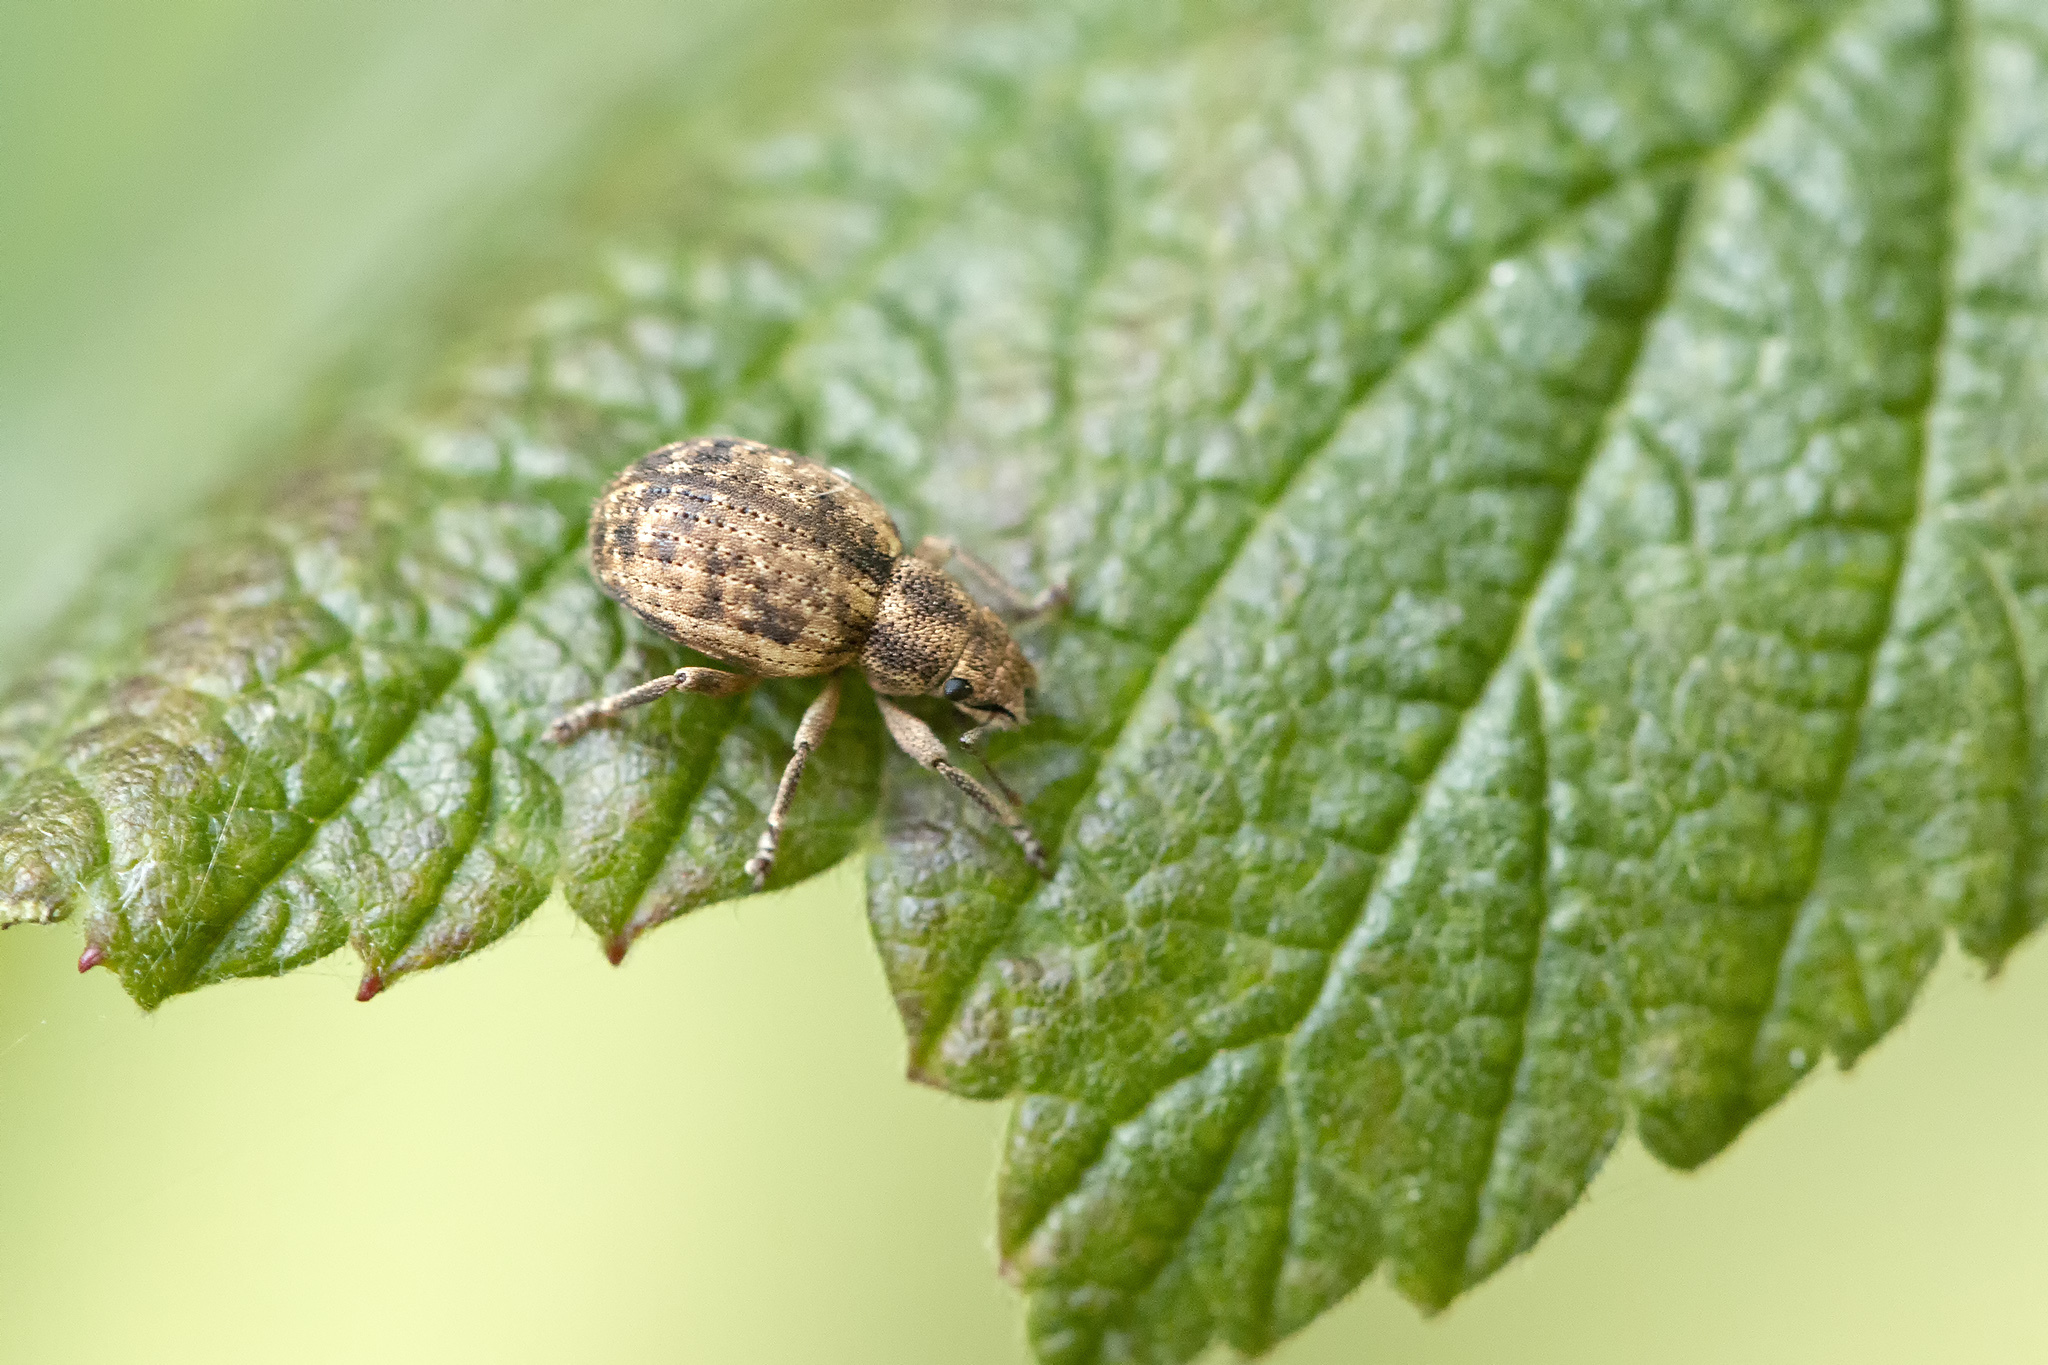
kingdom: Animalia
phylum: Arthropoda
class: Insecta
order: Coleoptera
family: Curculionidae
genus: Strophosoma
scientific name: Strophosoma capitatum
